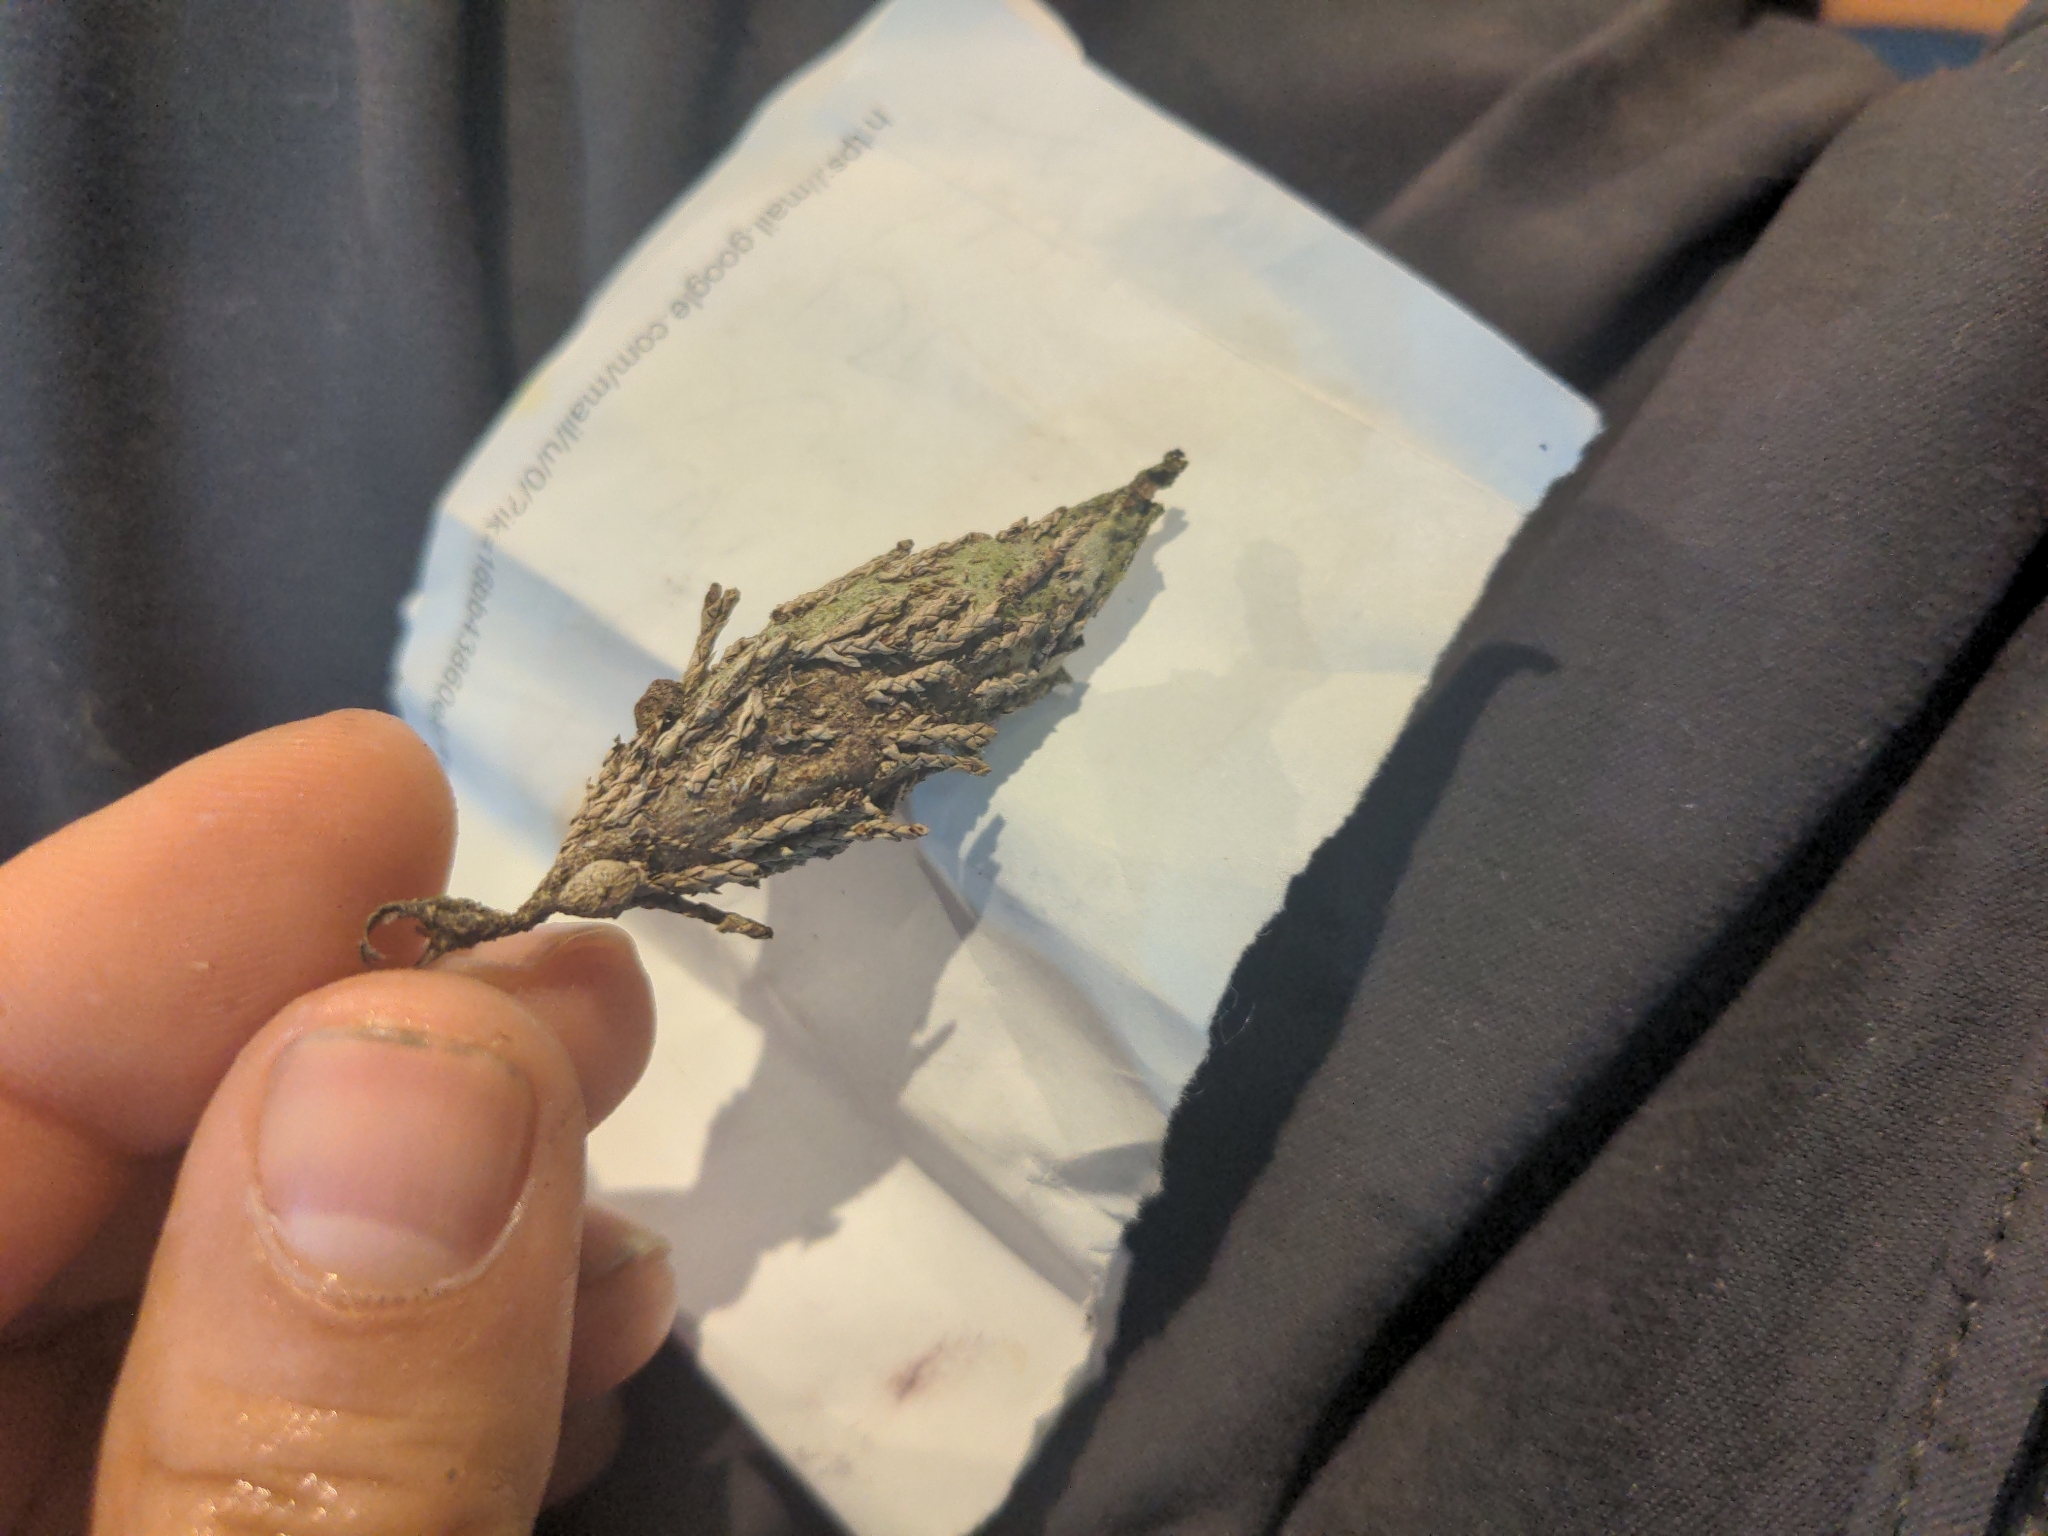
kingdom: Animalia
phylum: Arthropoda
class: Insecta
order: Lepidoptera
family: Psychidae
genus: Thyridopteryx
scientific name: Thyridopteryx ephemeraeformis
